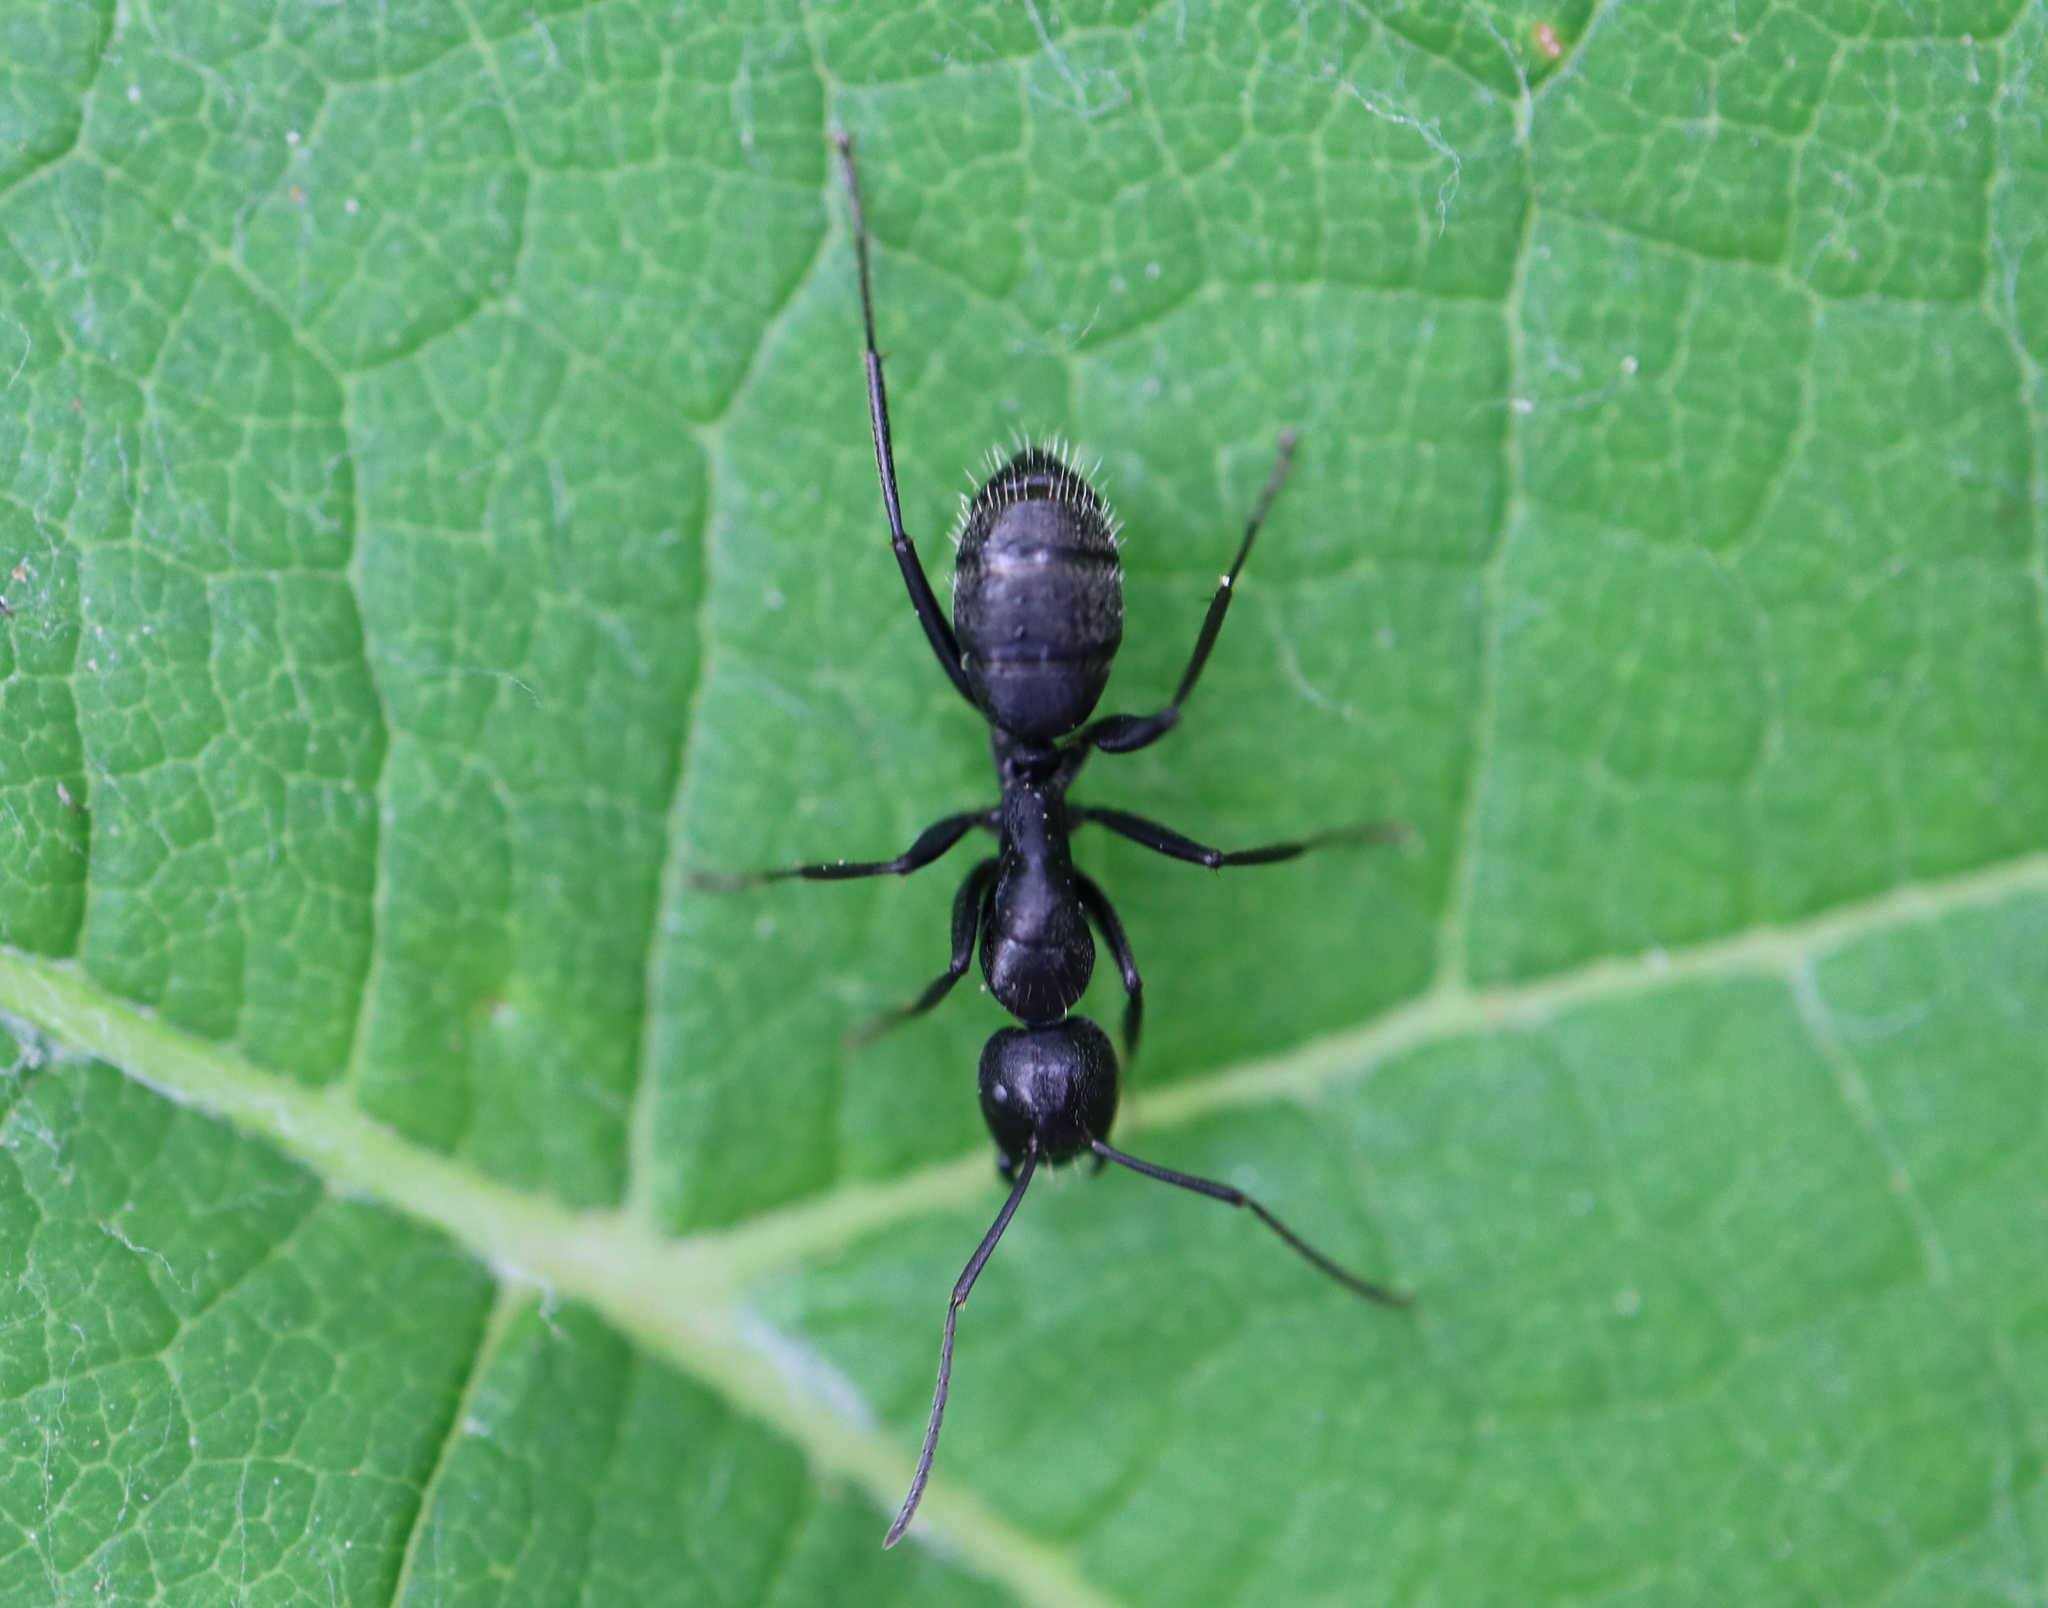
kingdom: Animalia
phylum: Arthropoda
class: Insecta
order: Hymenoptera
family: Formicidae
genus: Camponotus
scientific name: Camponotus vagus
